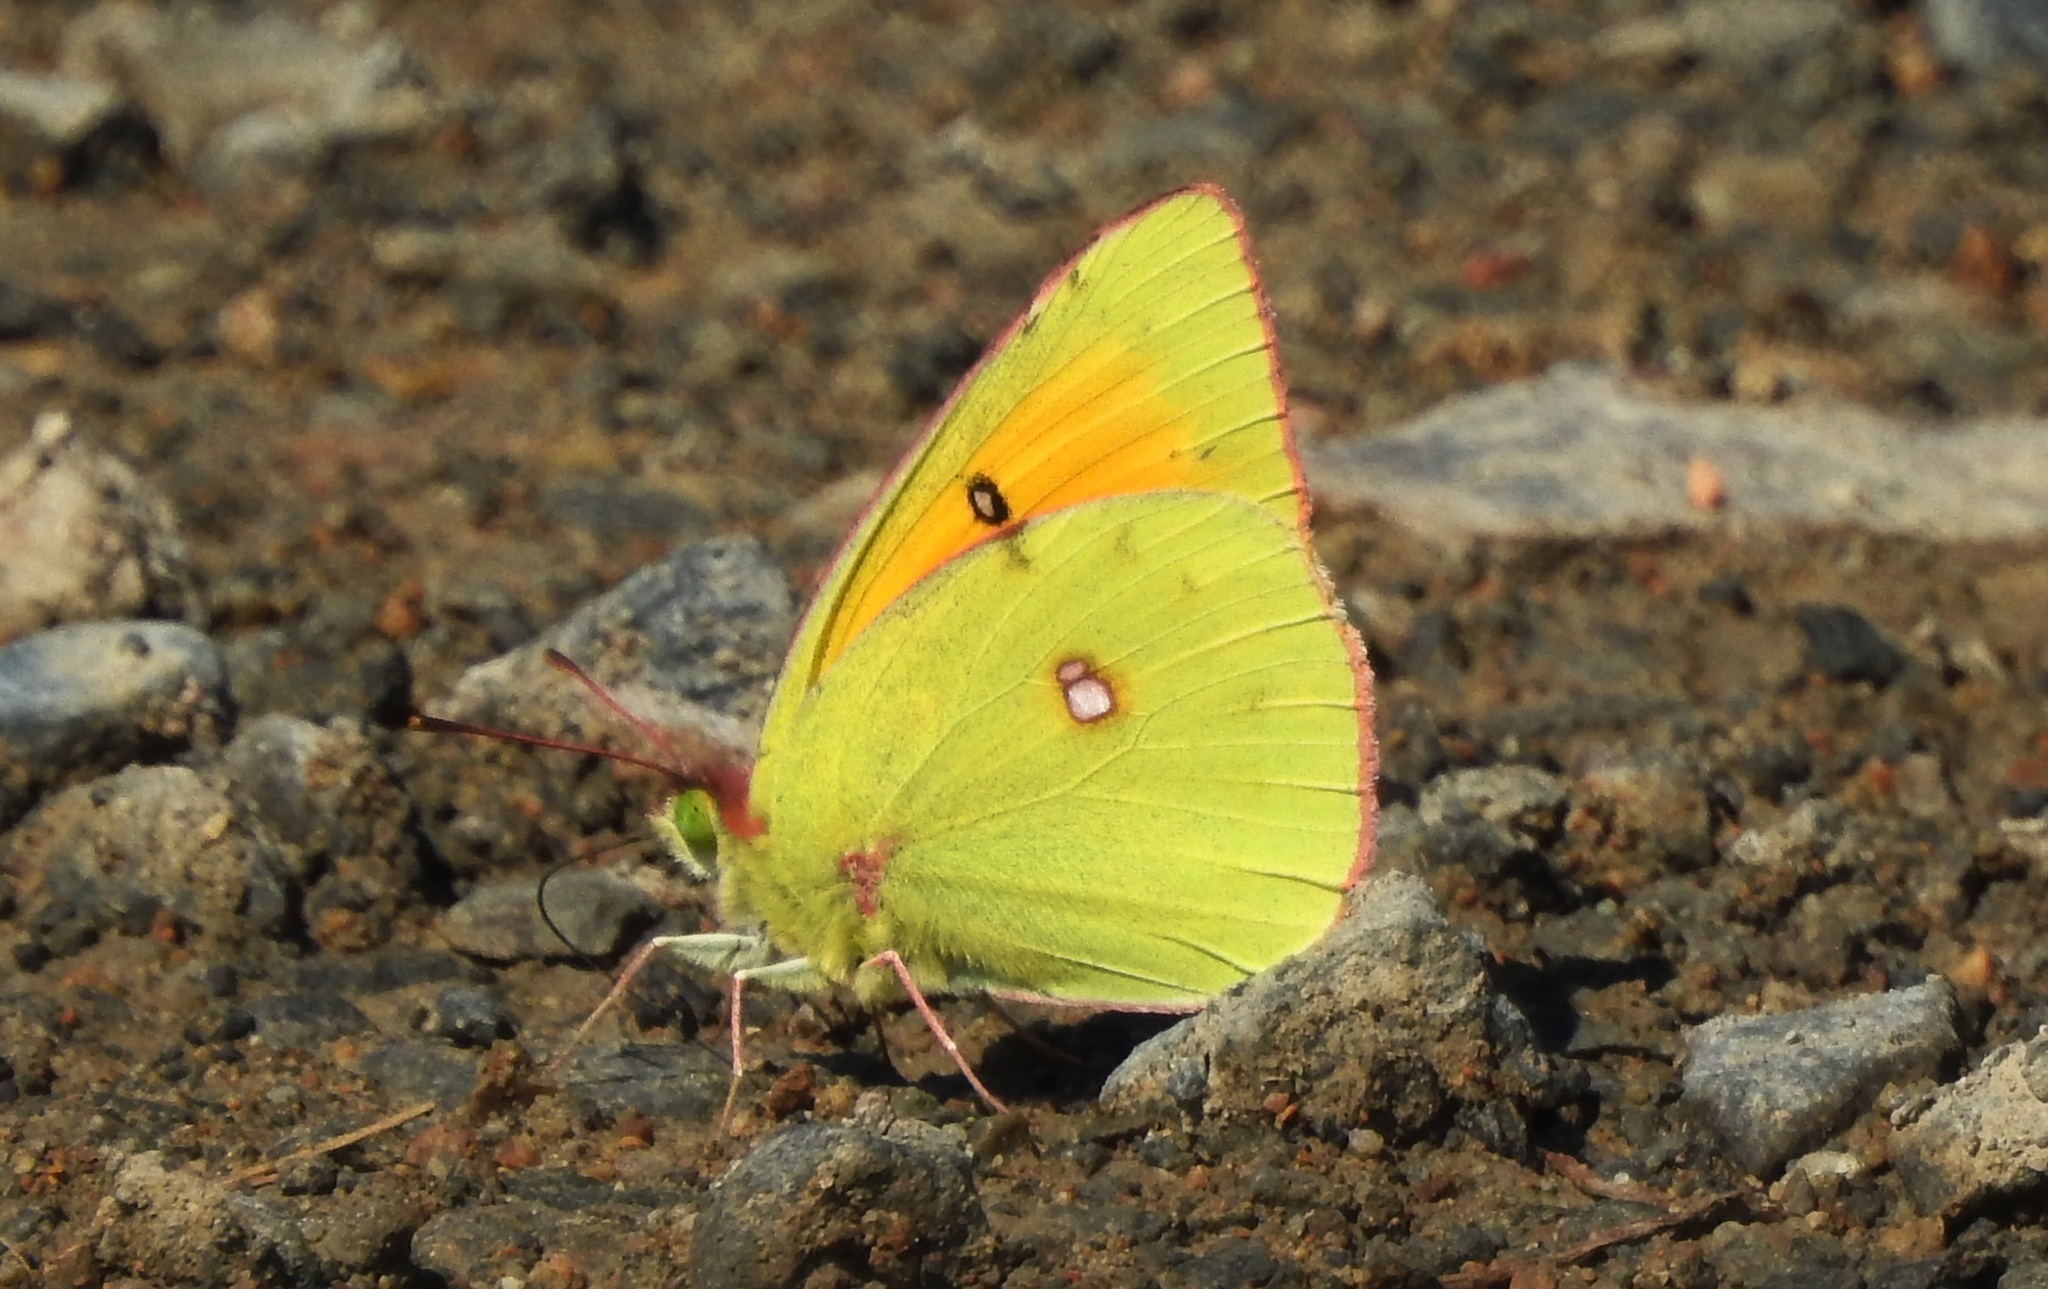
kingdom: Animalia
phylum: Arthropoda
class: Insecta
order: Lepidoptera
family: Pieridae
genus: Colias
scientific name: Colias heos
